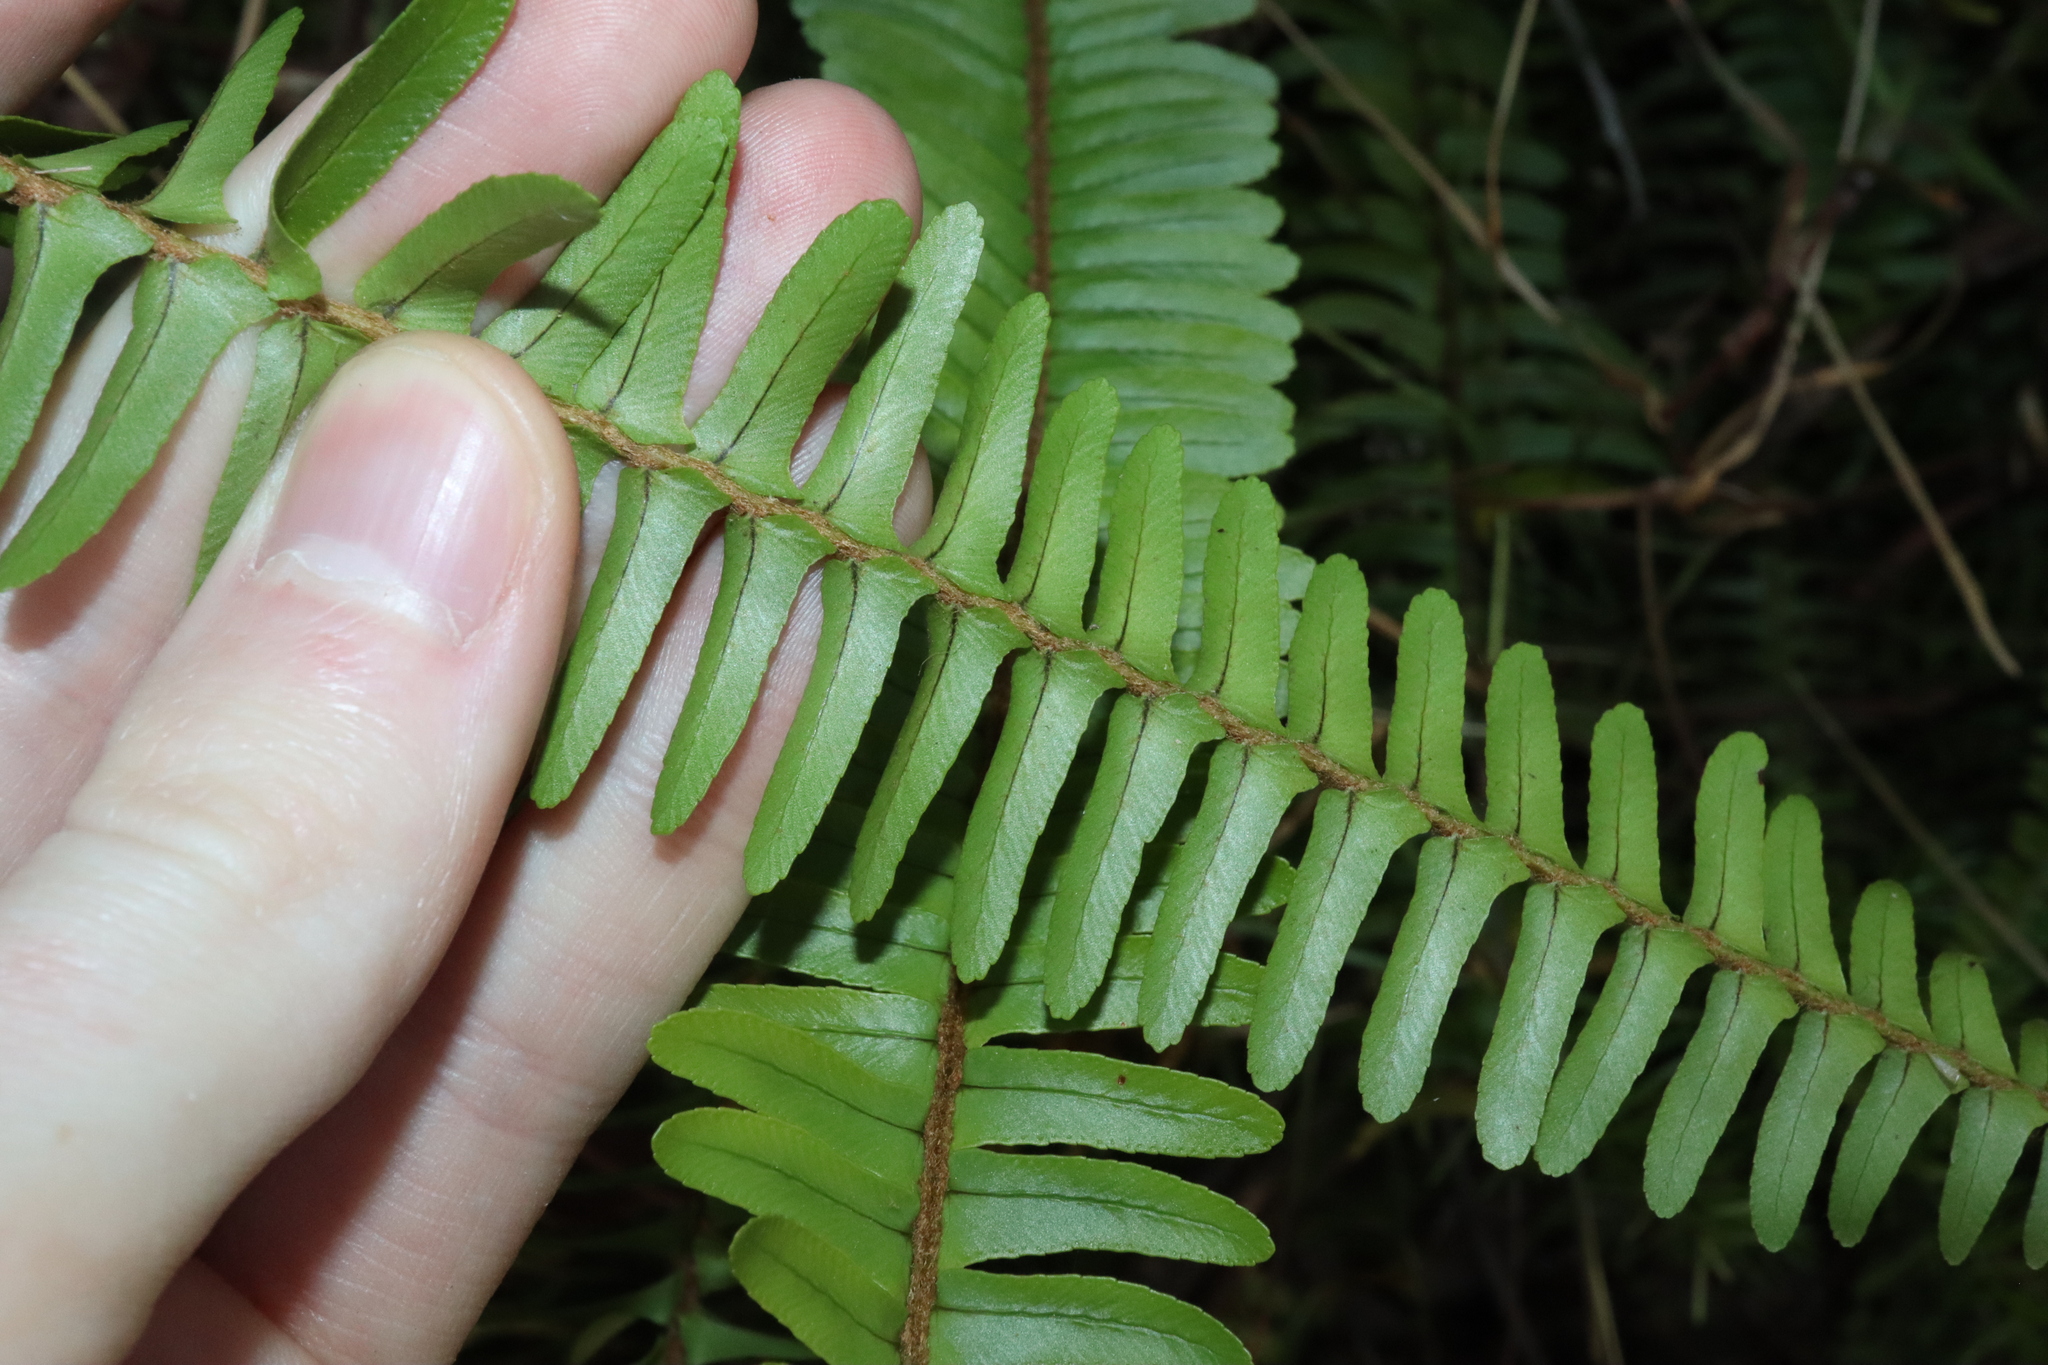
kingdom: Plantae
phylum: Tracheophyta
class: Polypodiopsida
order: Polypodiales
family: Nephrolepidaceae
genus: Nephrolepis
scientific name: Nephrolepis cordifolia
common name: Narrow swordfern
